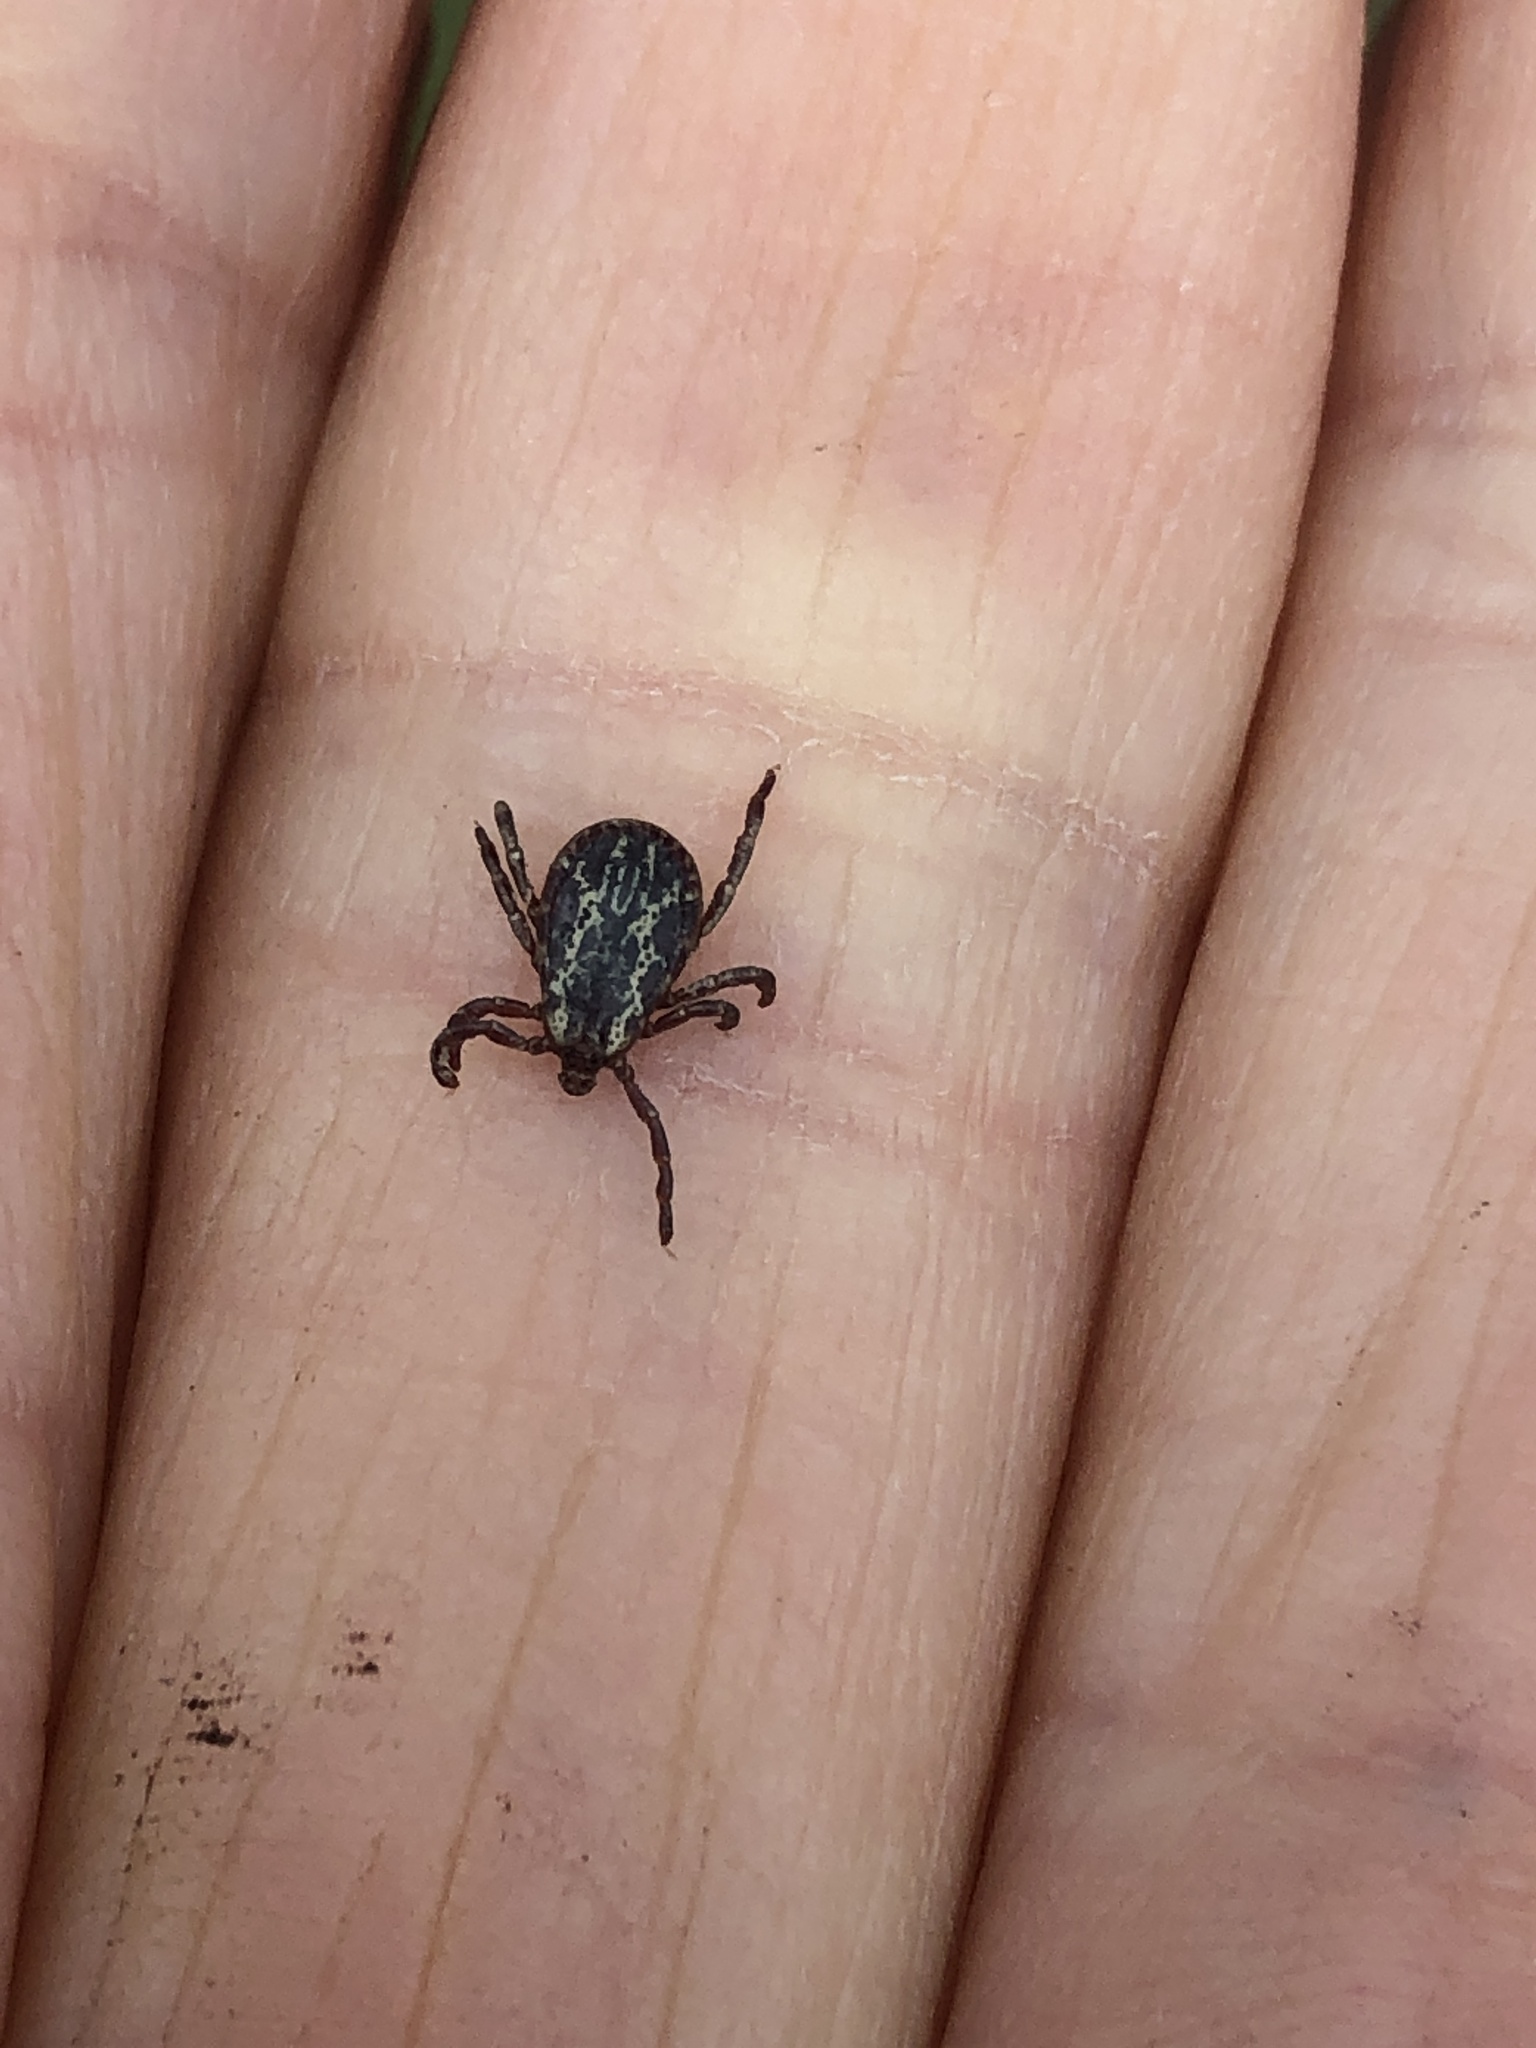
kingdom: Animalia
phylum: Arthropoda
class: Arachnida
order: Ixodida
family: Ixodidae
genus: Dermacentor
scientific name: Dermacentor variabilis
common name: American dog tick
